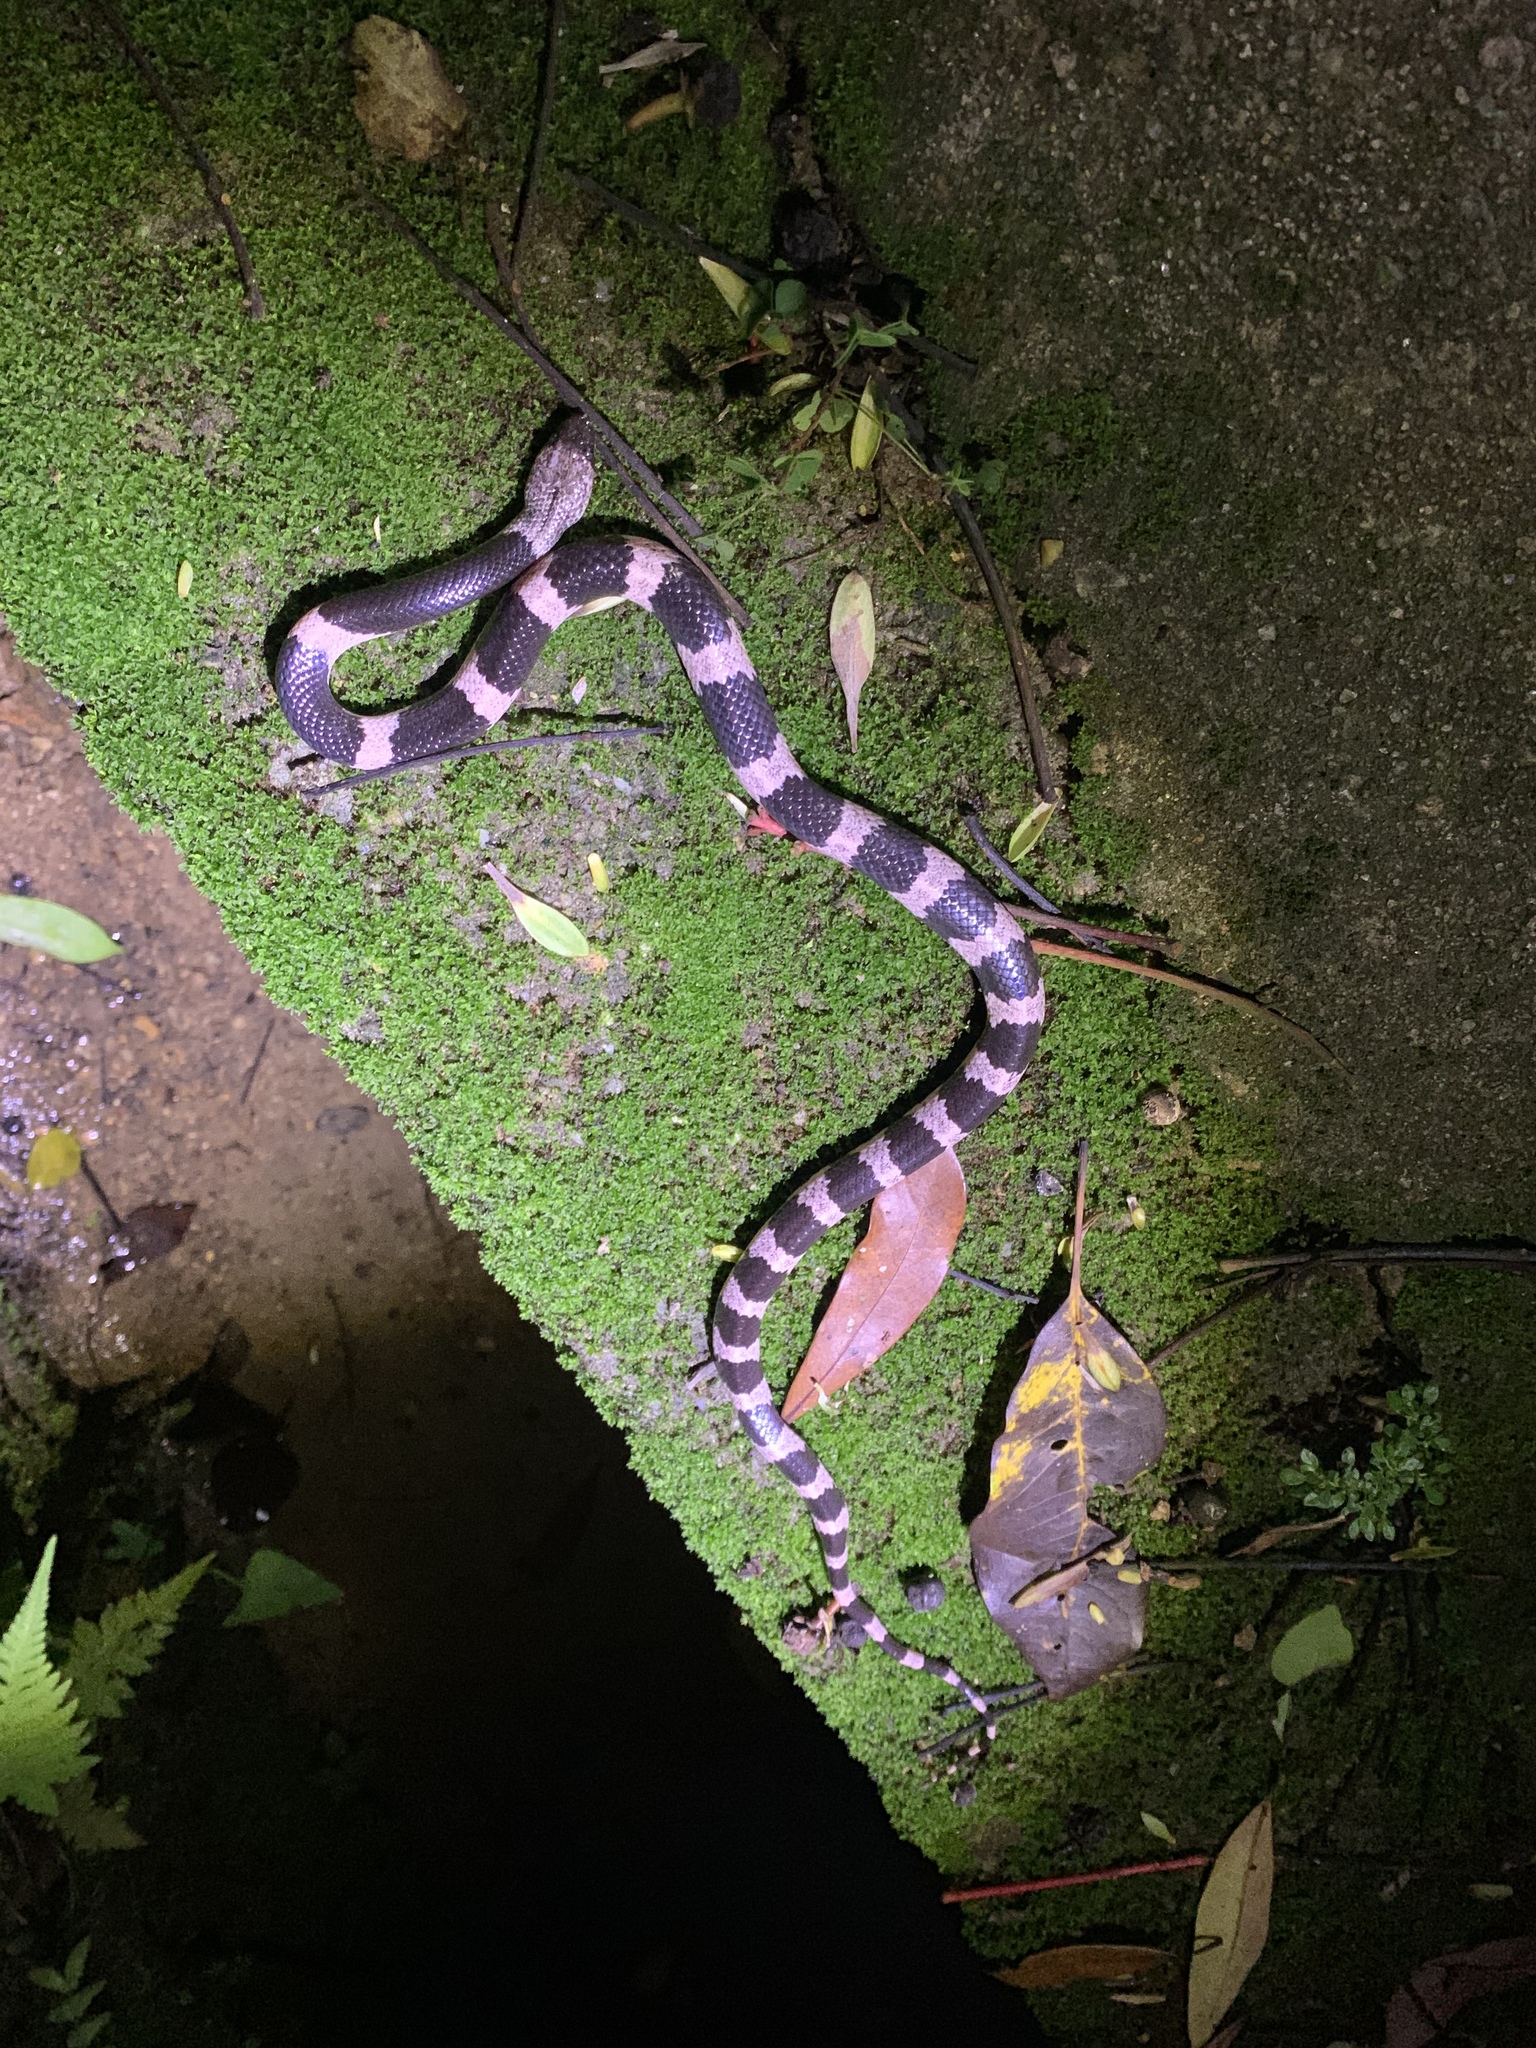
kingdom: Animalia
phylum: Chordata
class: Squamata
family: Colubridae
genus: Lycodon
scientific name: Lycodon futsingensis
